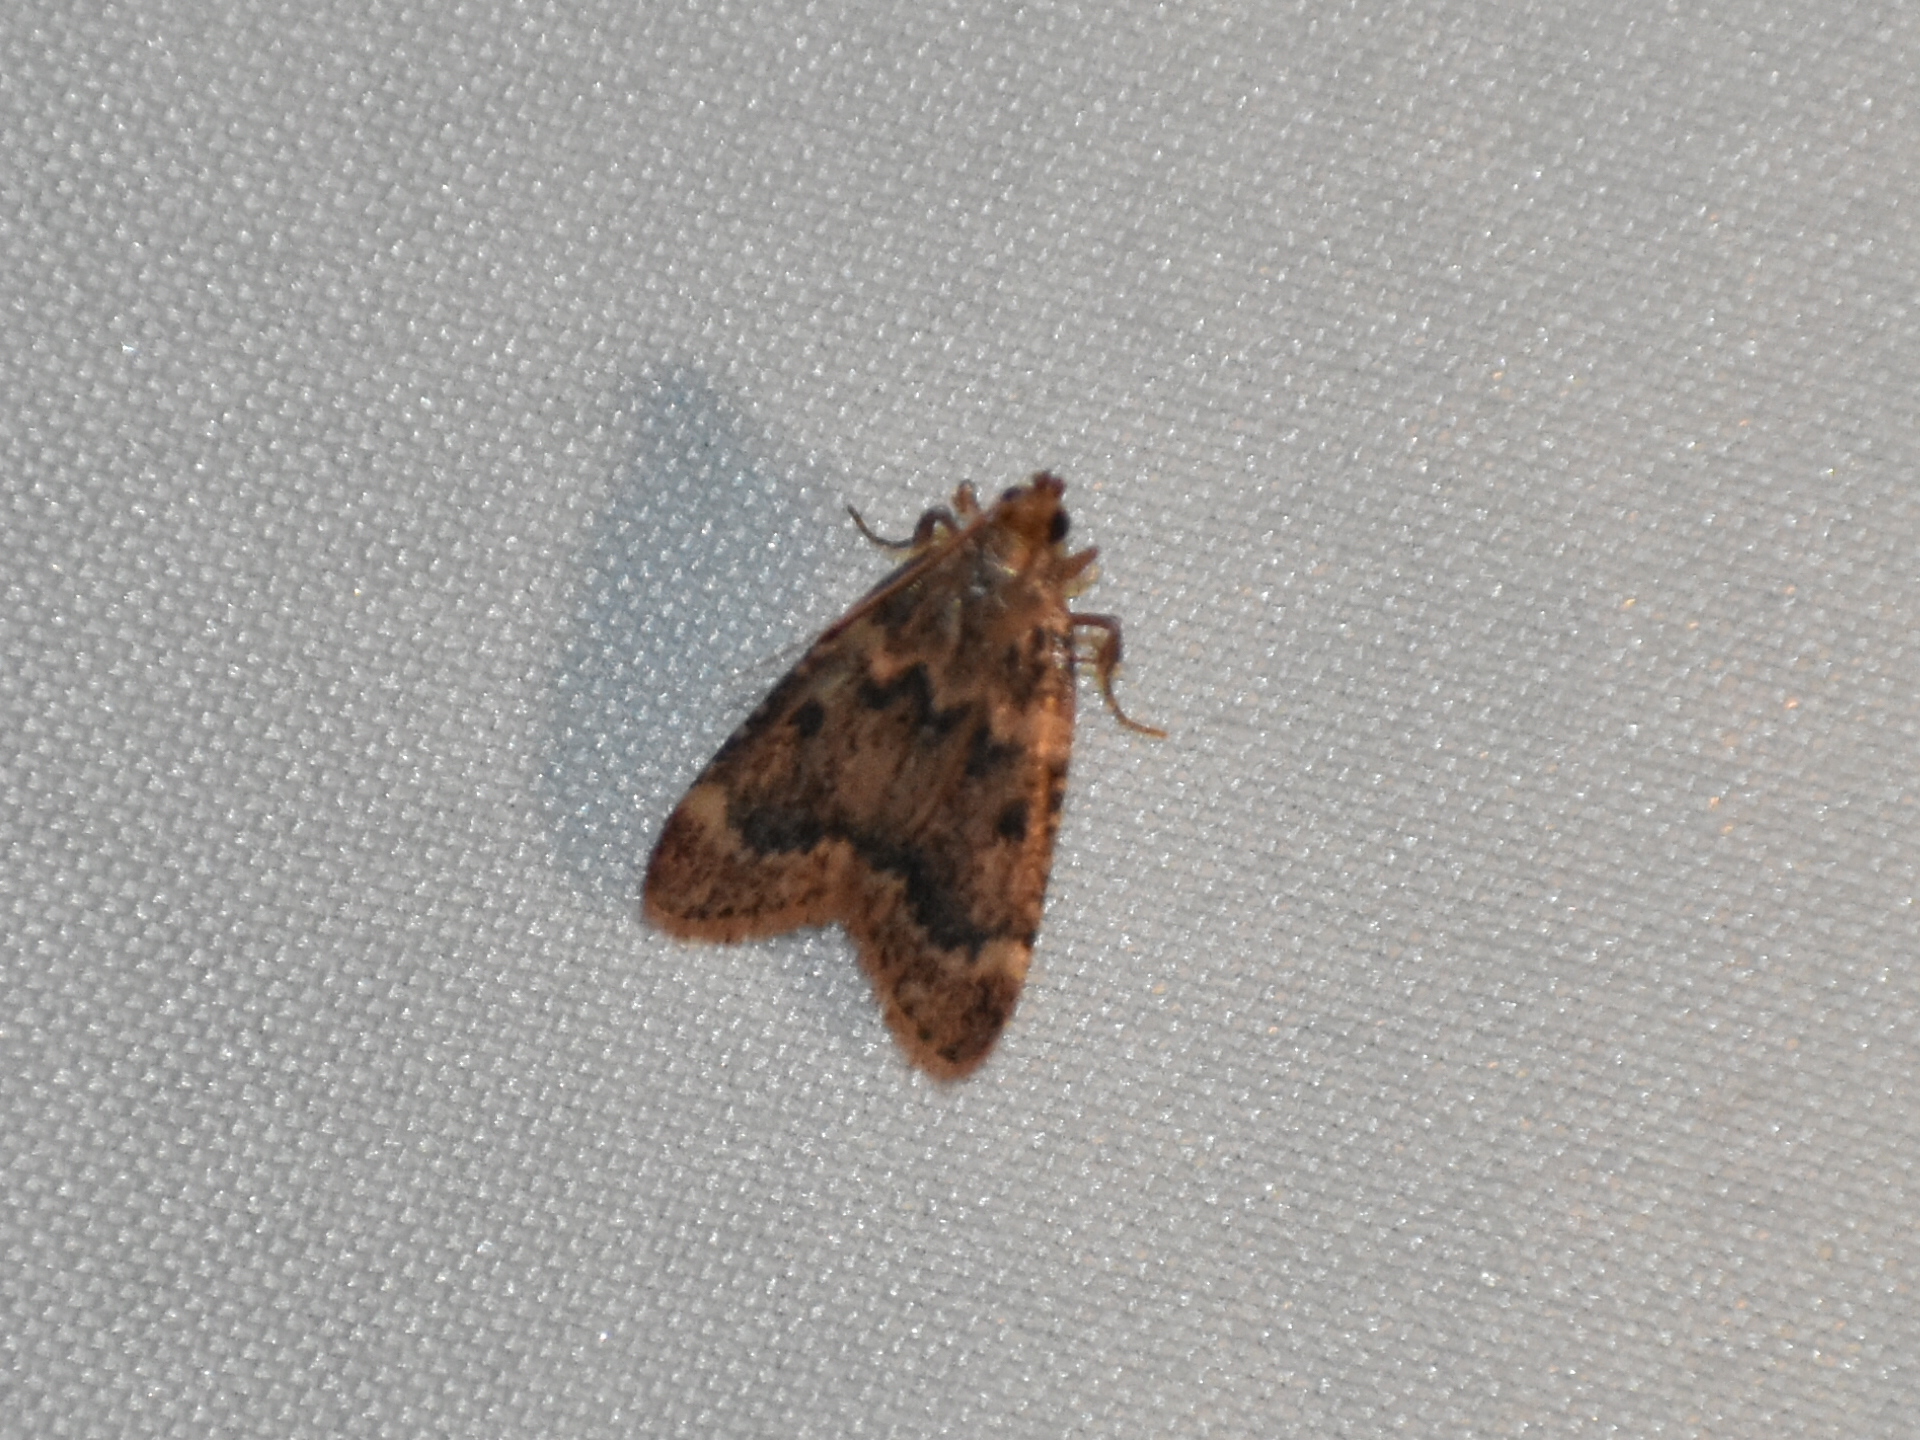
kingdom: Animalia
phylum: Arthropoda
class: Insecta
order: Lepidoptera
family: Pyralidae
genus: Aglossa
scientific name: Aglossa disciferalis
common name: Pink-masked pyralid moth
